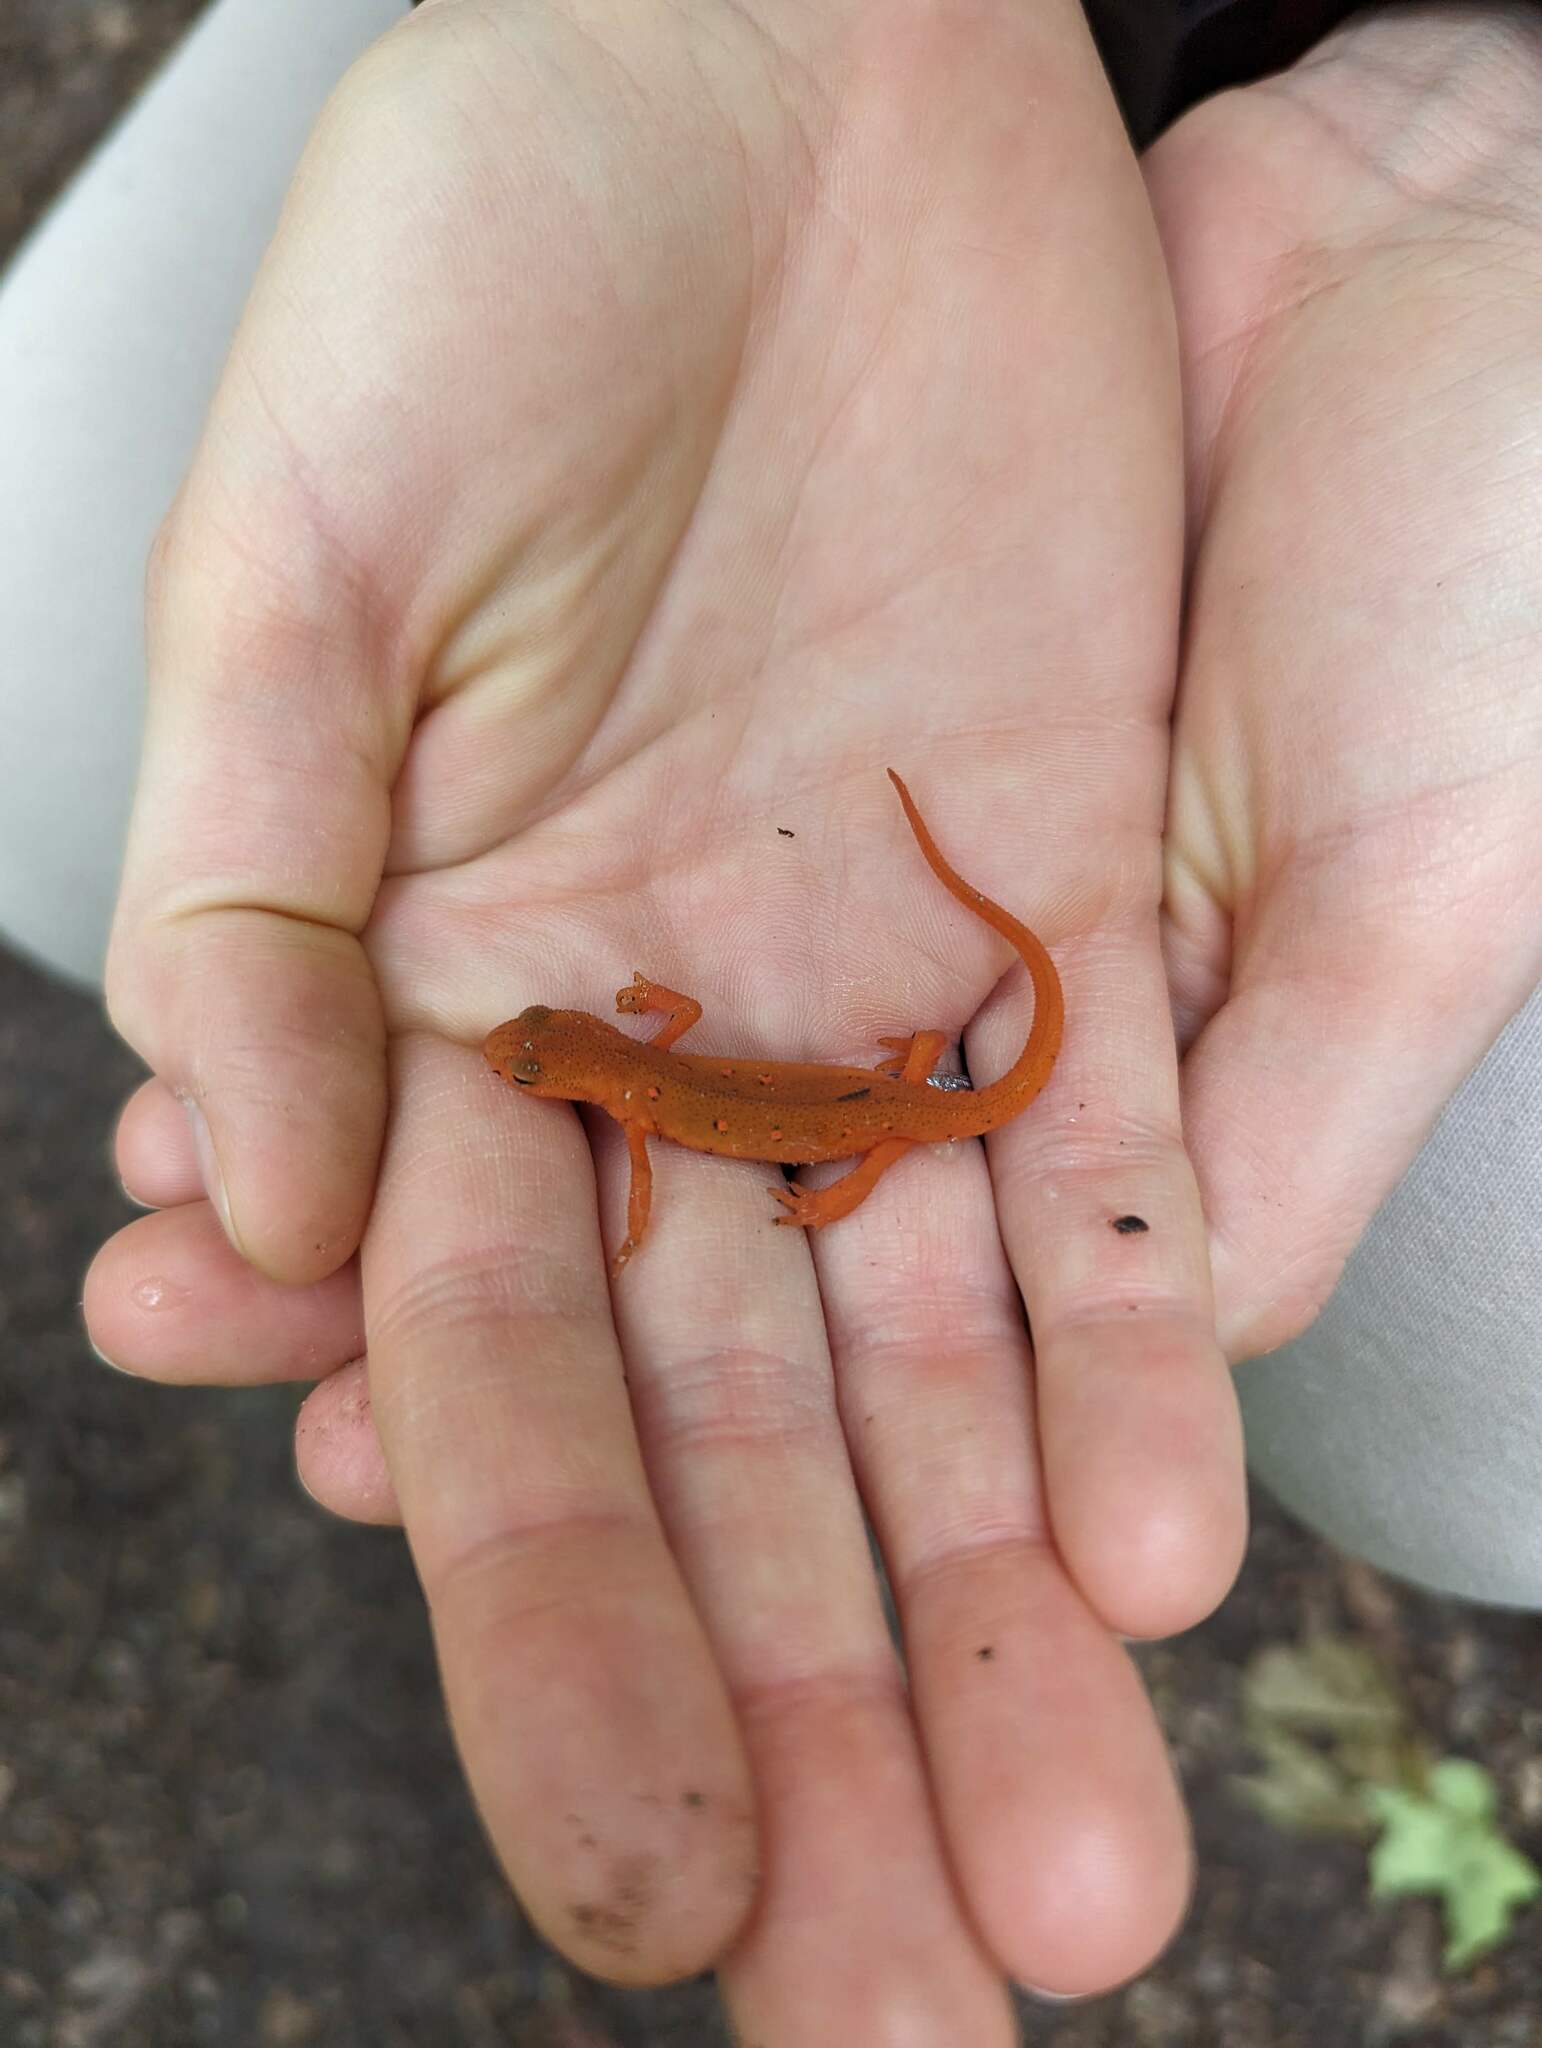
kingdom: Animalia
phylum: Chordata
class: Amphibia
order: Caudata
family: Salamandridae
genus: Notophthalmus
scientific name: Notophthalmus viridescens
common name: Eastern newt
